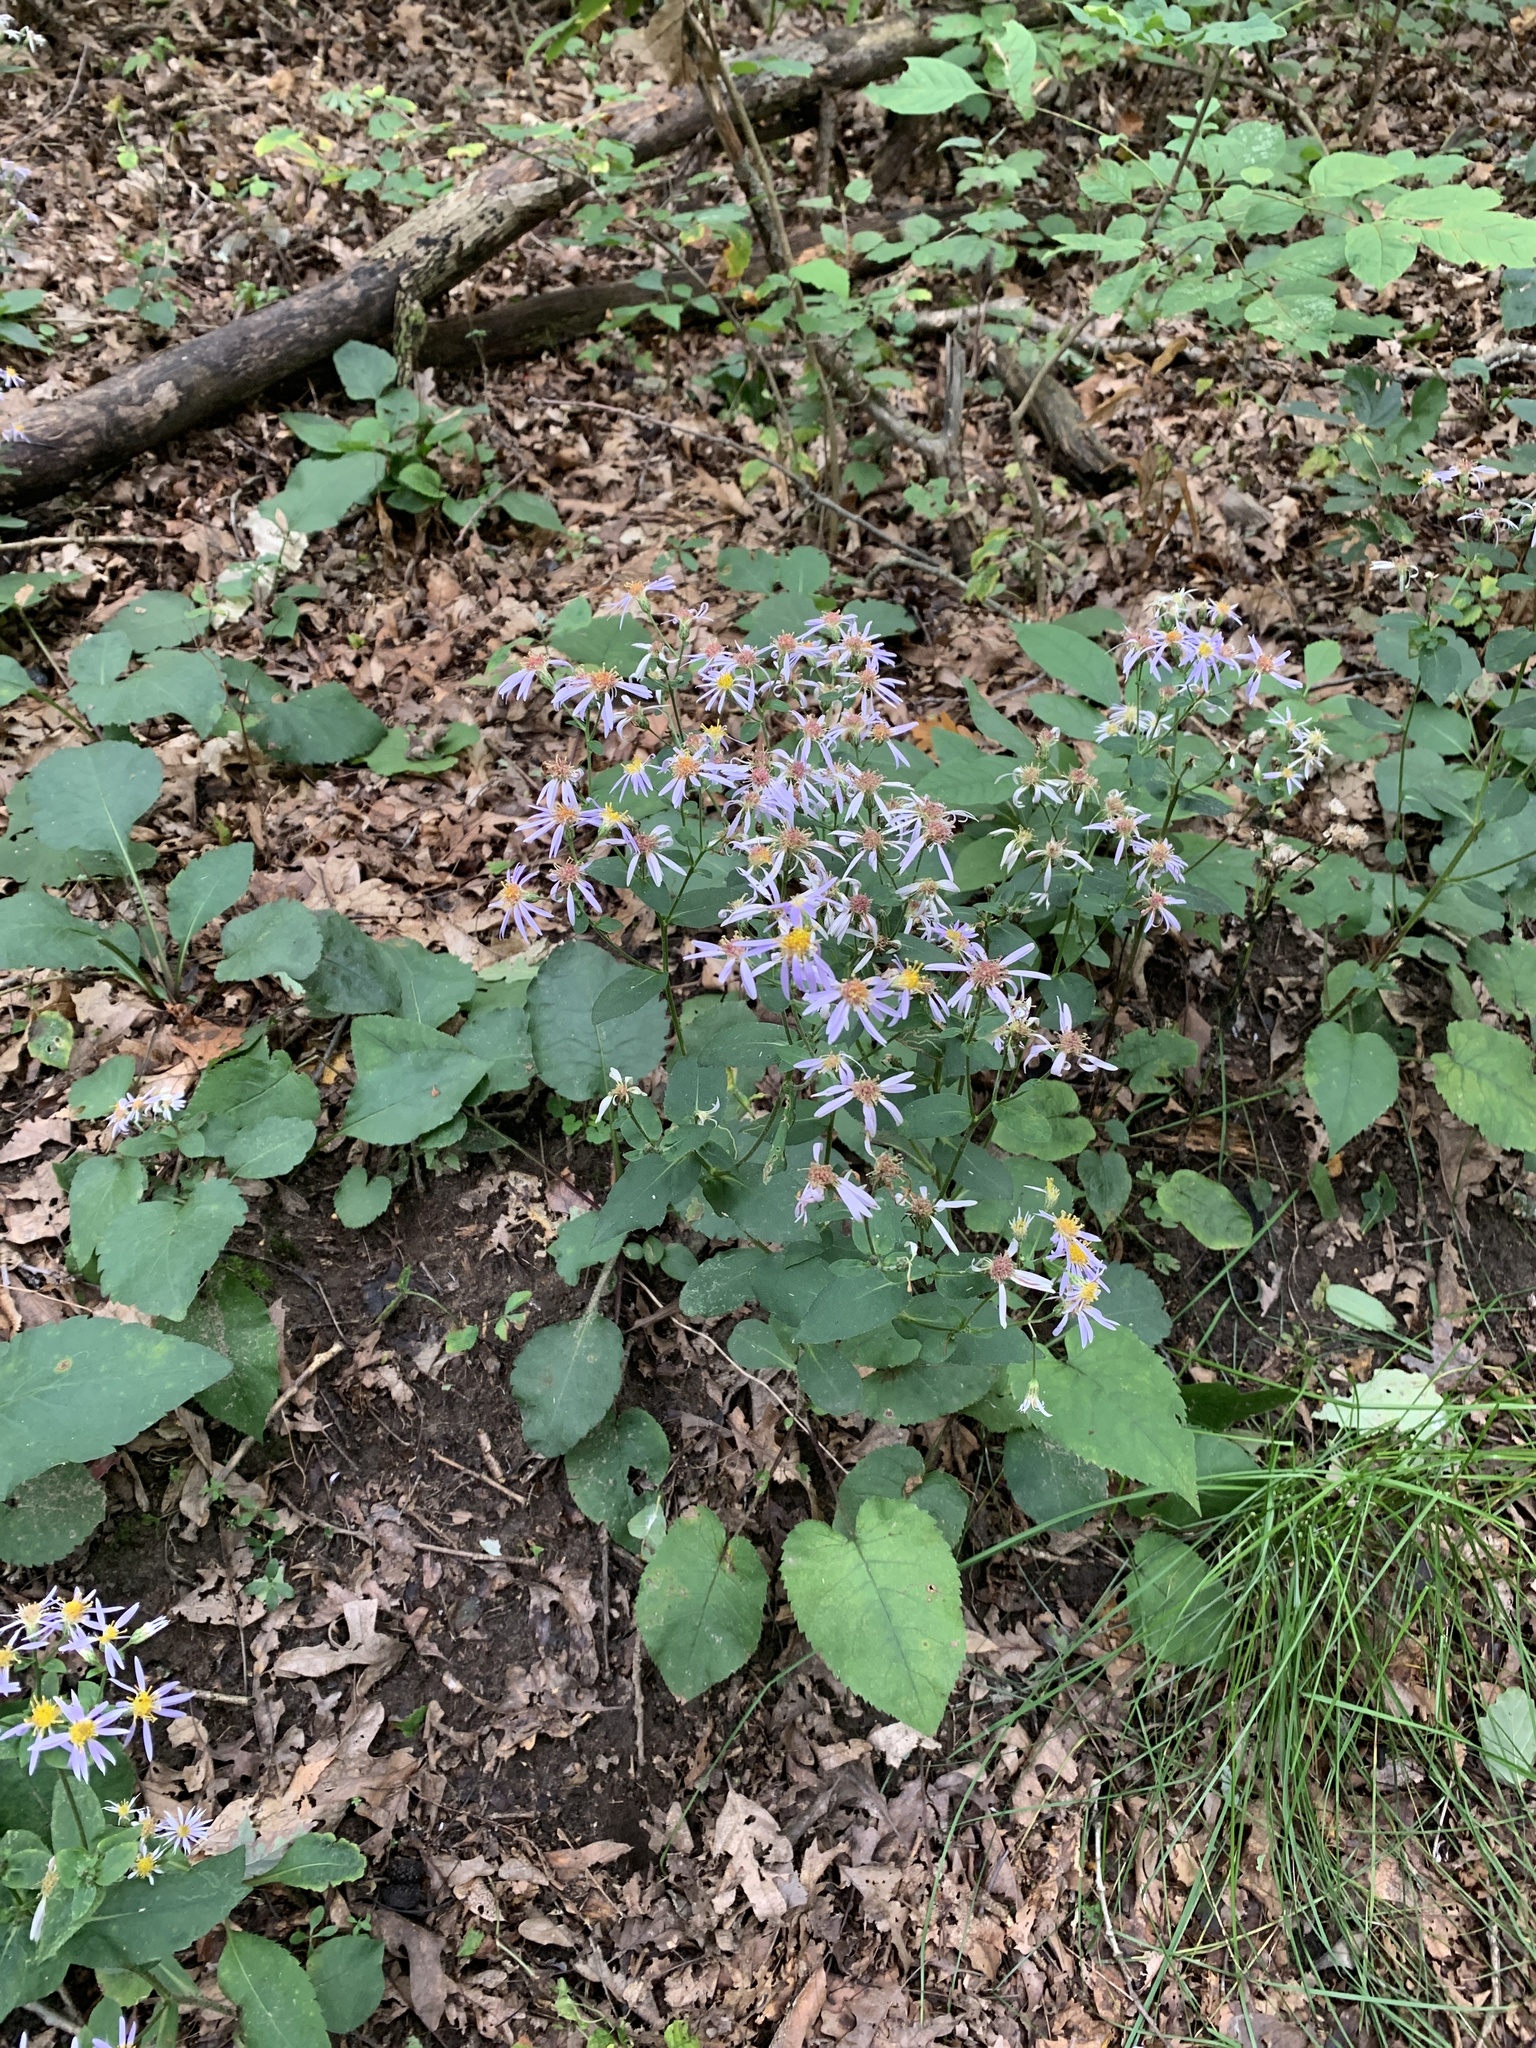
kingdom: Plantae
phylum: Tracheophyta
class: Magnoliopsida
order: Asterales
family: Asteraceae
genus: Eurybia
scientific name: Eurybia macrophylla
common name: Big-leaved aster
